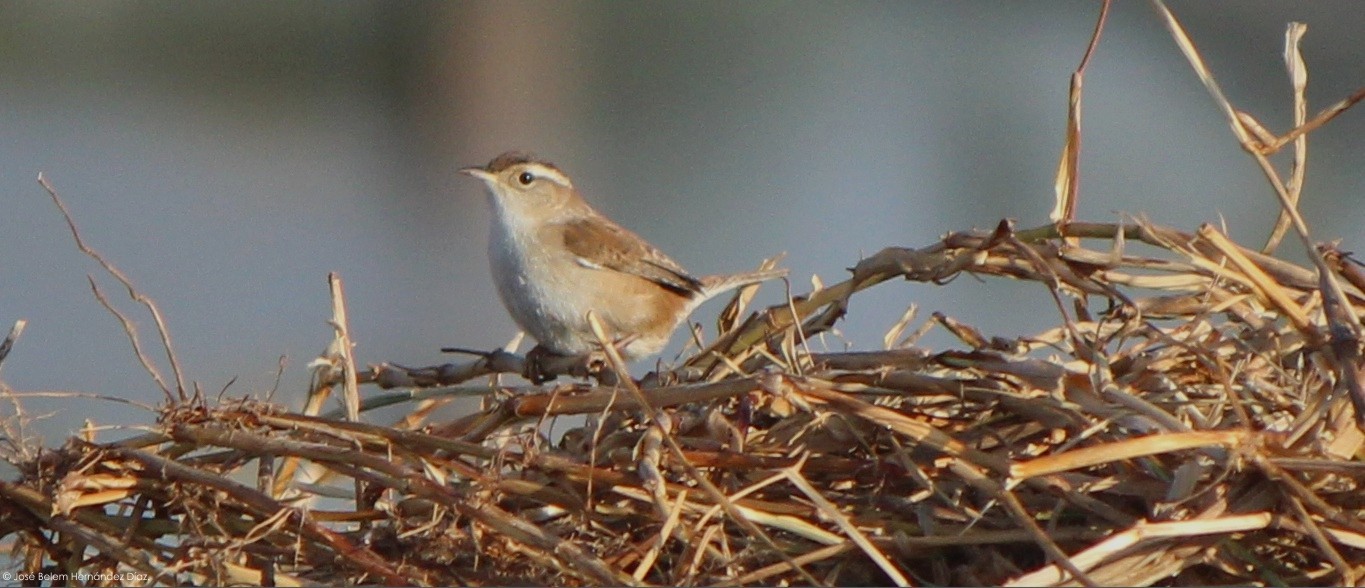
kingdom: Animalia
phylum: Chordata
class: Aves
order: Passeriformes
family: Troglodytidae
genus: Cistothorus
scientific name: Cistothorus palustris
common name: Marsh wren
